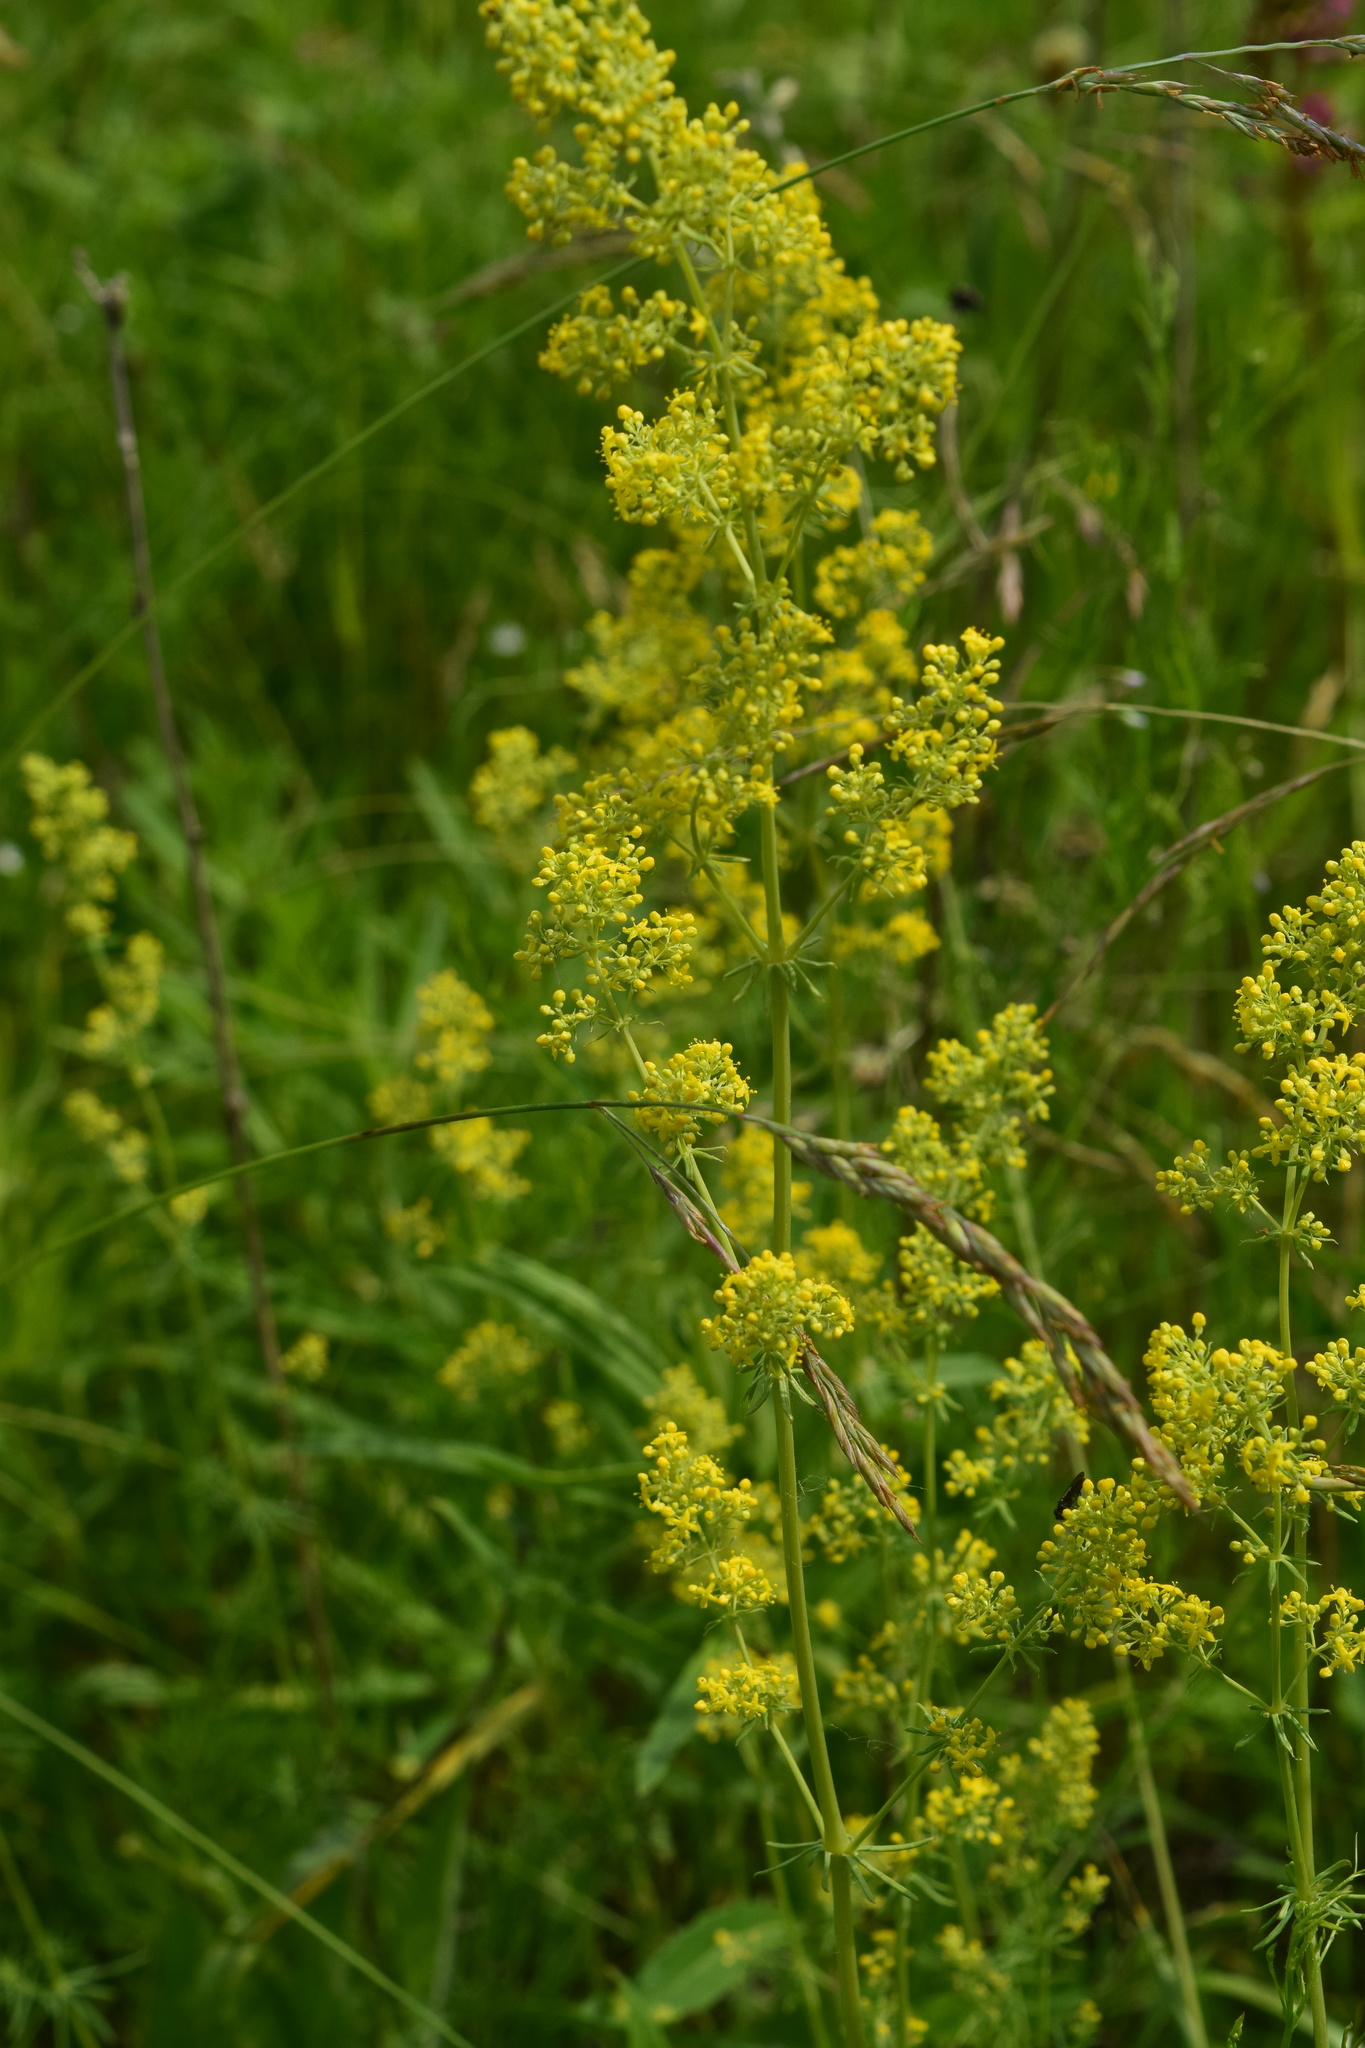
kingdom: Plantae
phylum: Tracheophyta
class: Magnoliopsida
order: Gentianales
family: Rubiaceae
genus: Galium
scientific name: Galium verum
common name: Lady's bedstraw
